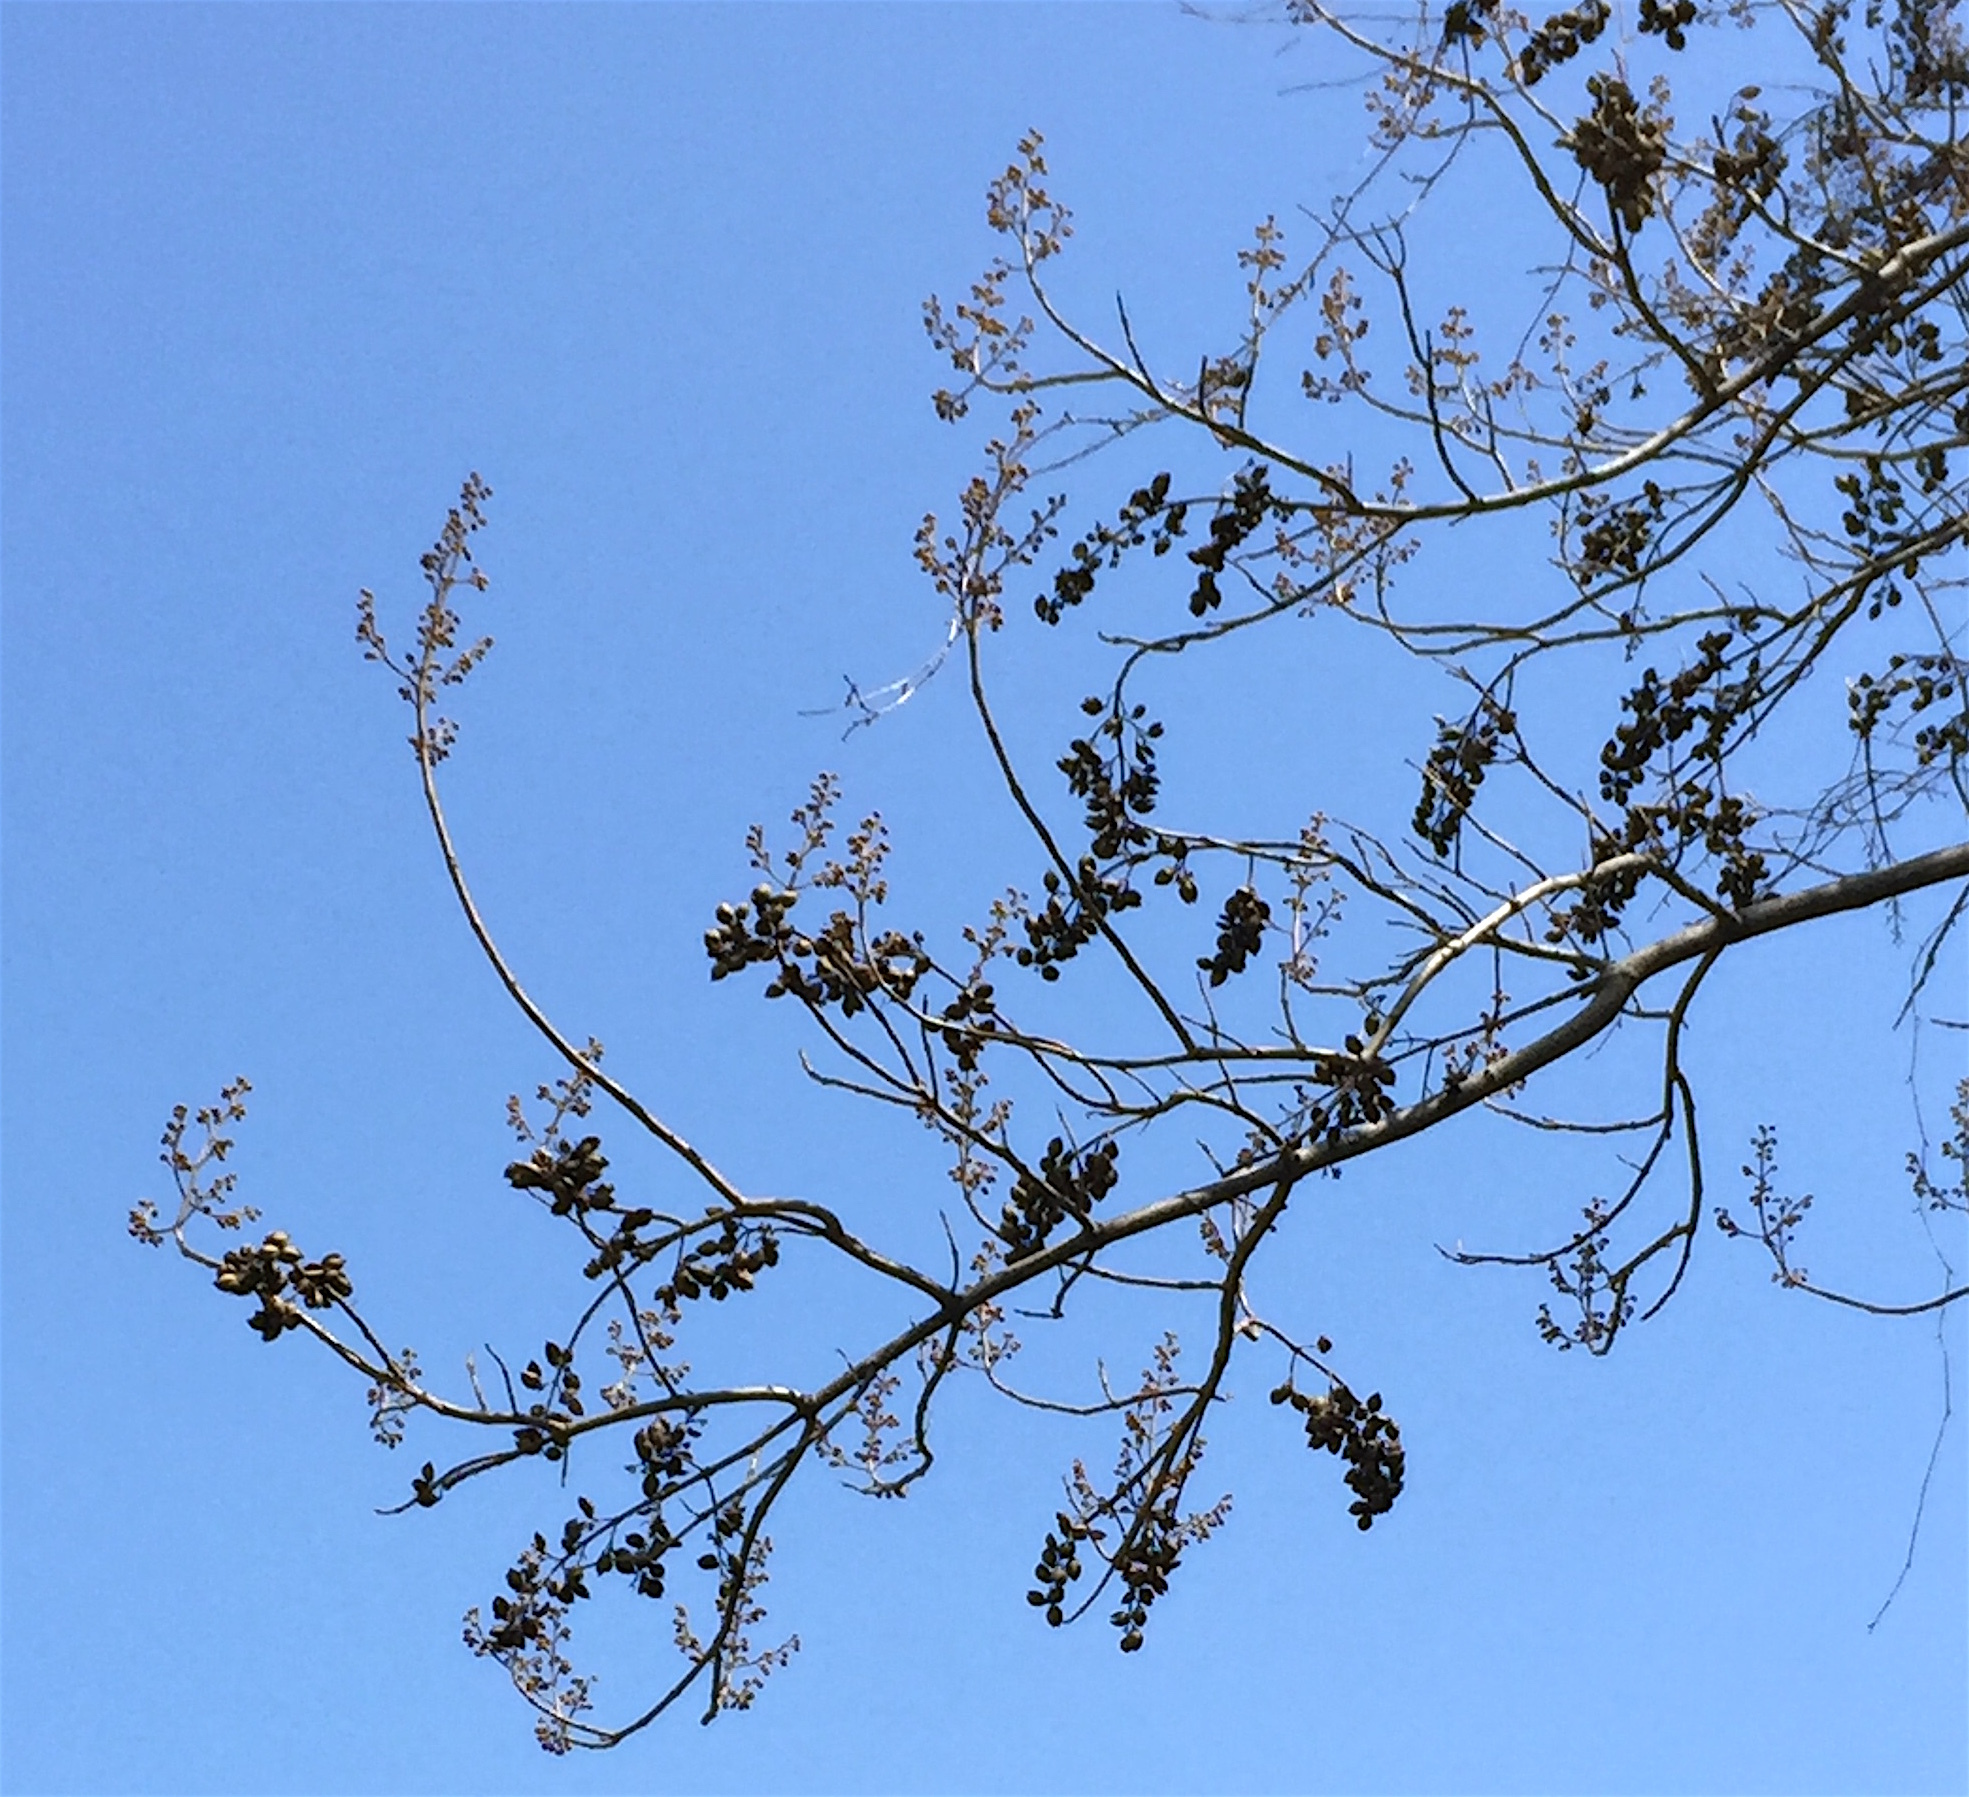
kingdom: Plantae
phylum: Tracheophyta
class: Magnoliopsida
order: Lamiales
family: Paulowniaceae
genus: Paulownia
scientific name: Paulownia tomentosa
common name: Foxglove-tree
